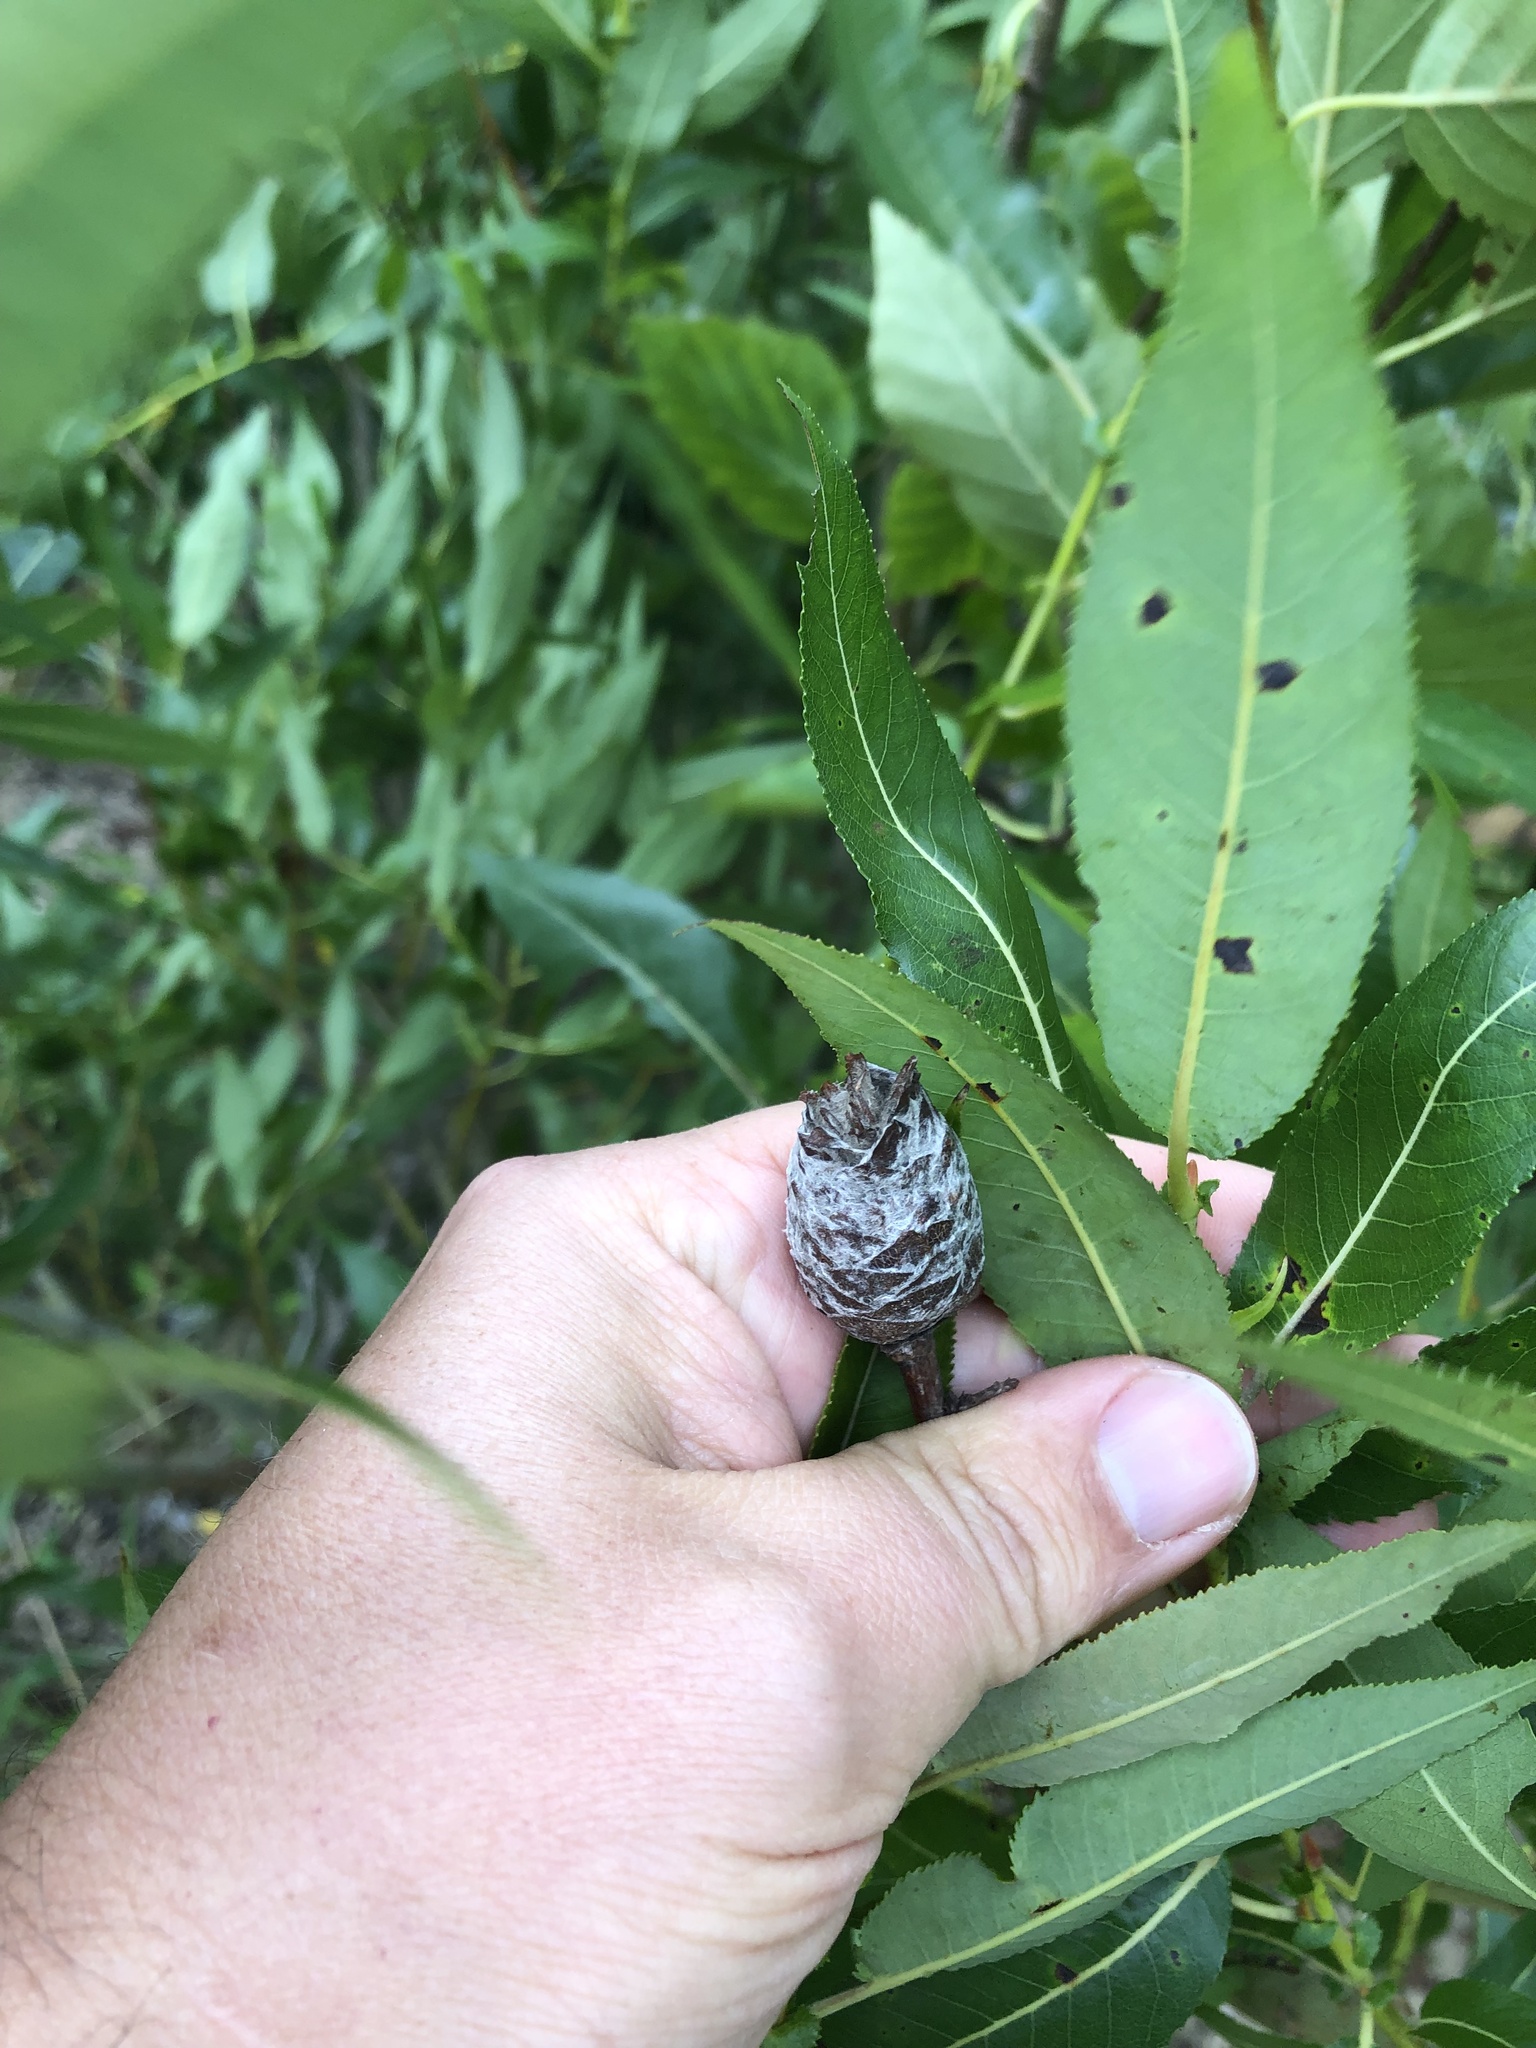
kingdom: Animalia
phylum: Arthropoda
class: Insecta
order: Diptera
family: Cecidomyiidae
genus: Rabdophaga
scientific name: Rabdophaga strobiloides
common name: Willow pinecone gall midge
